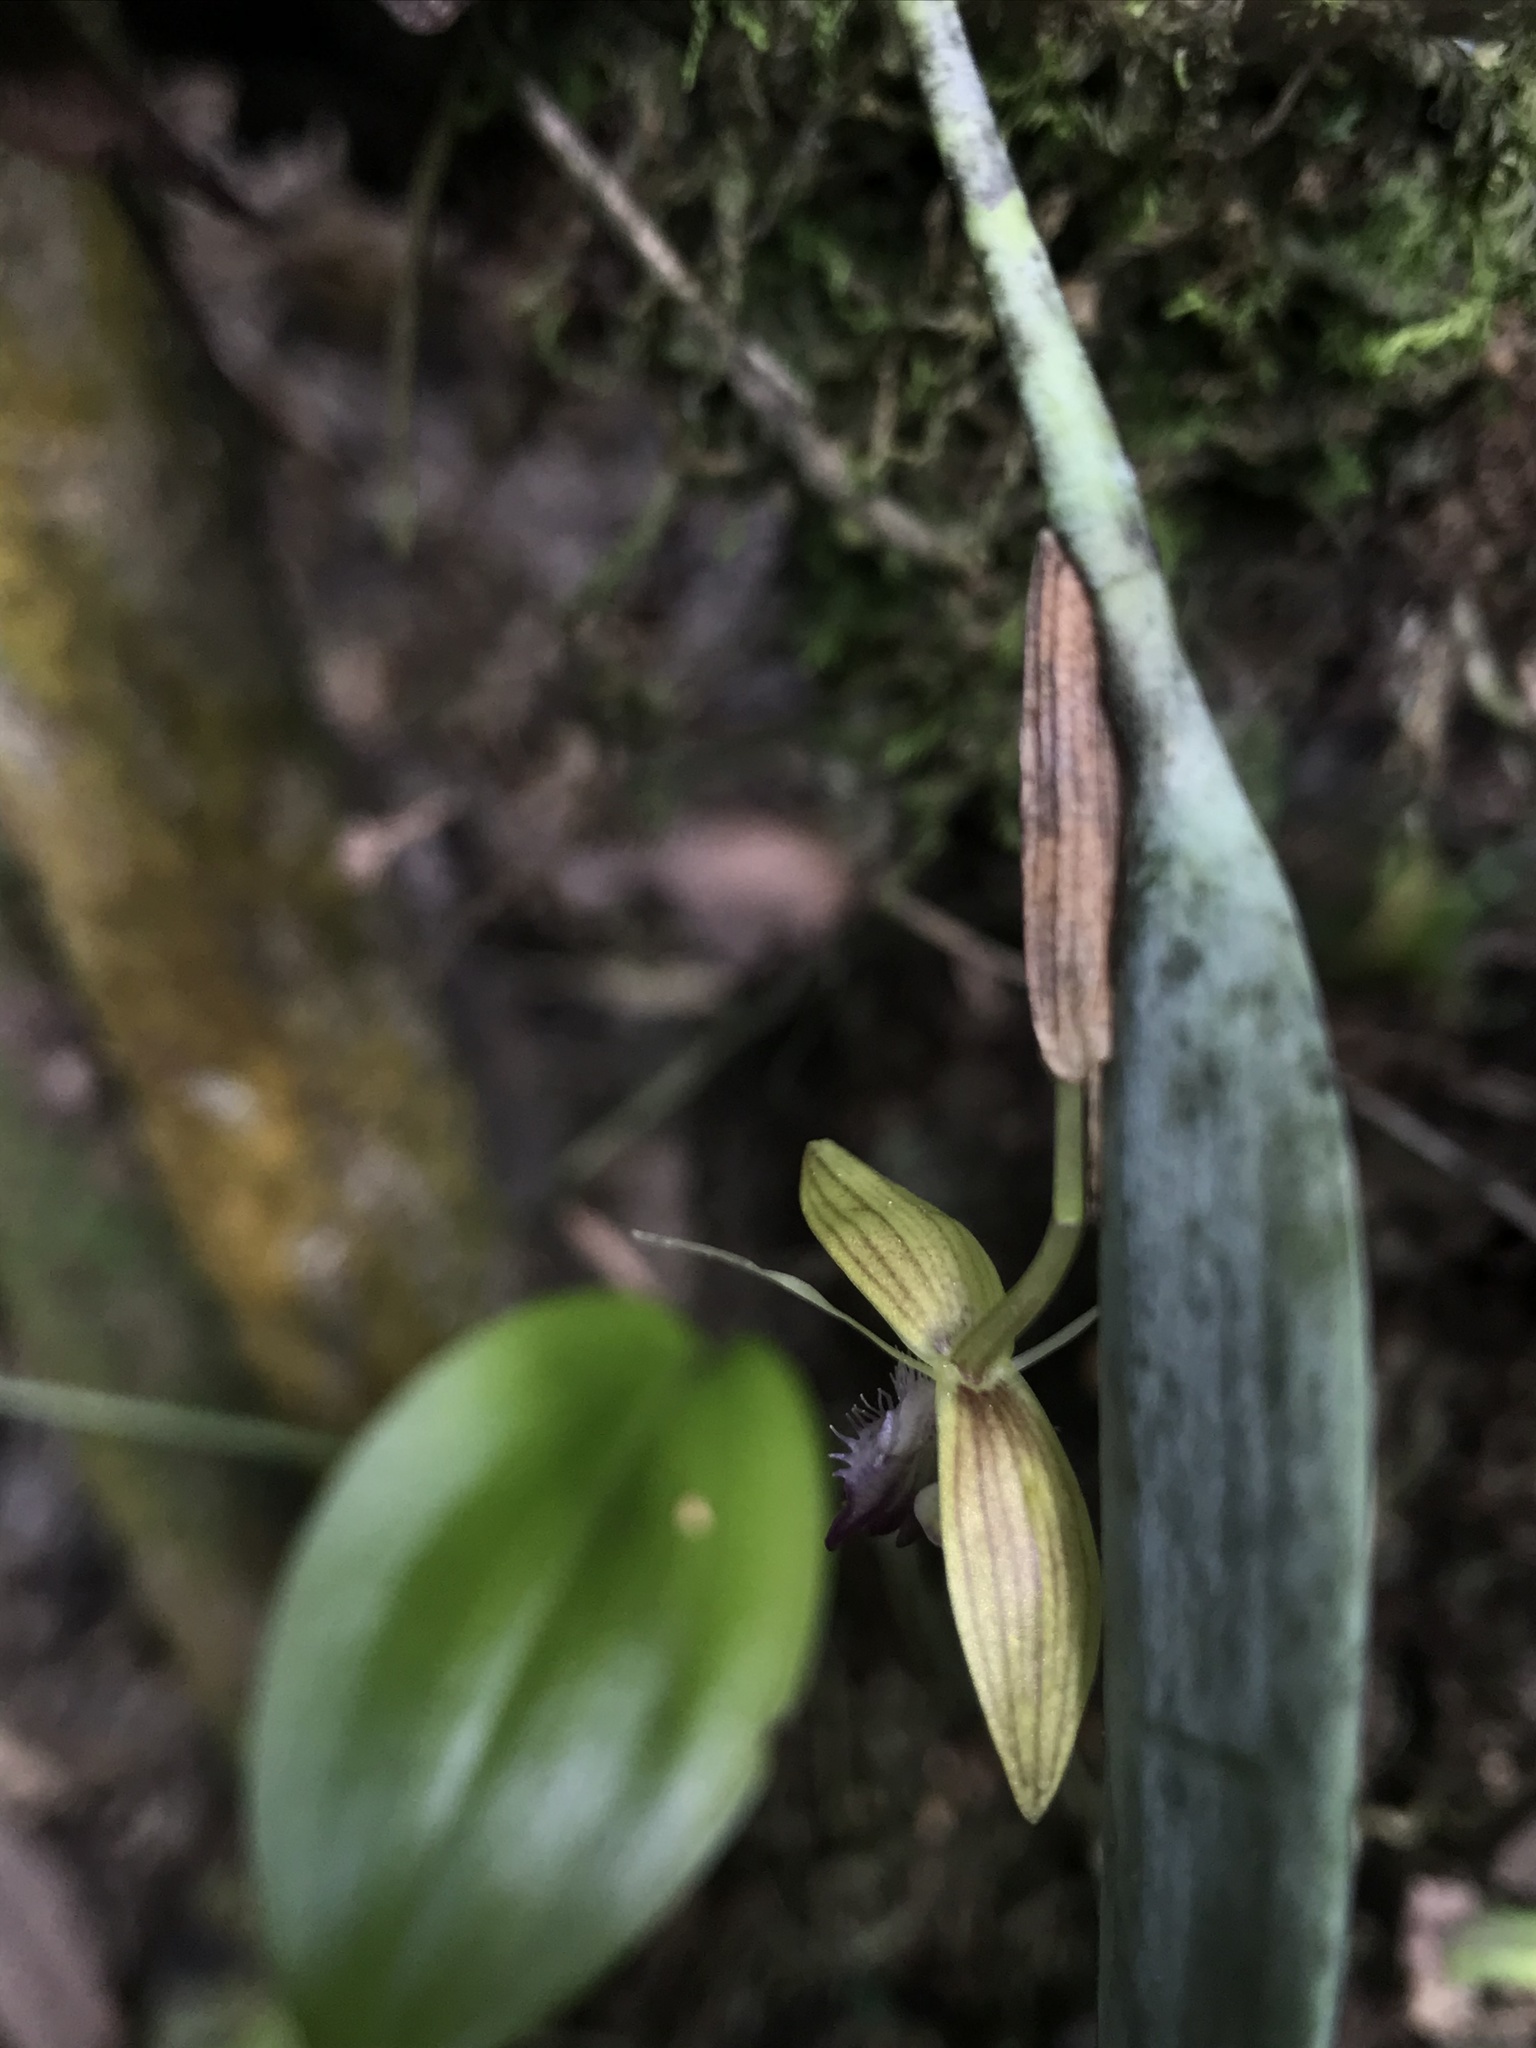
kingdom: Plantae
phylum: Tracheophyta
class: Liliopsida
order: Asparagales
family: Orchidaceae
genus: Pleurothallis
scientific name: Pleurothallis talpinaria
